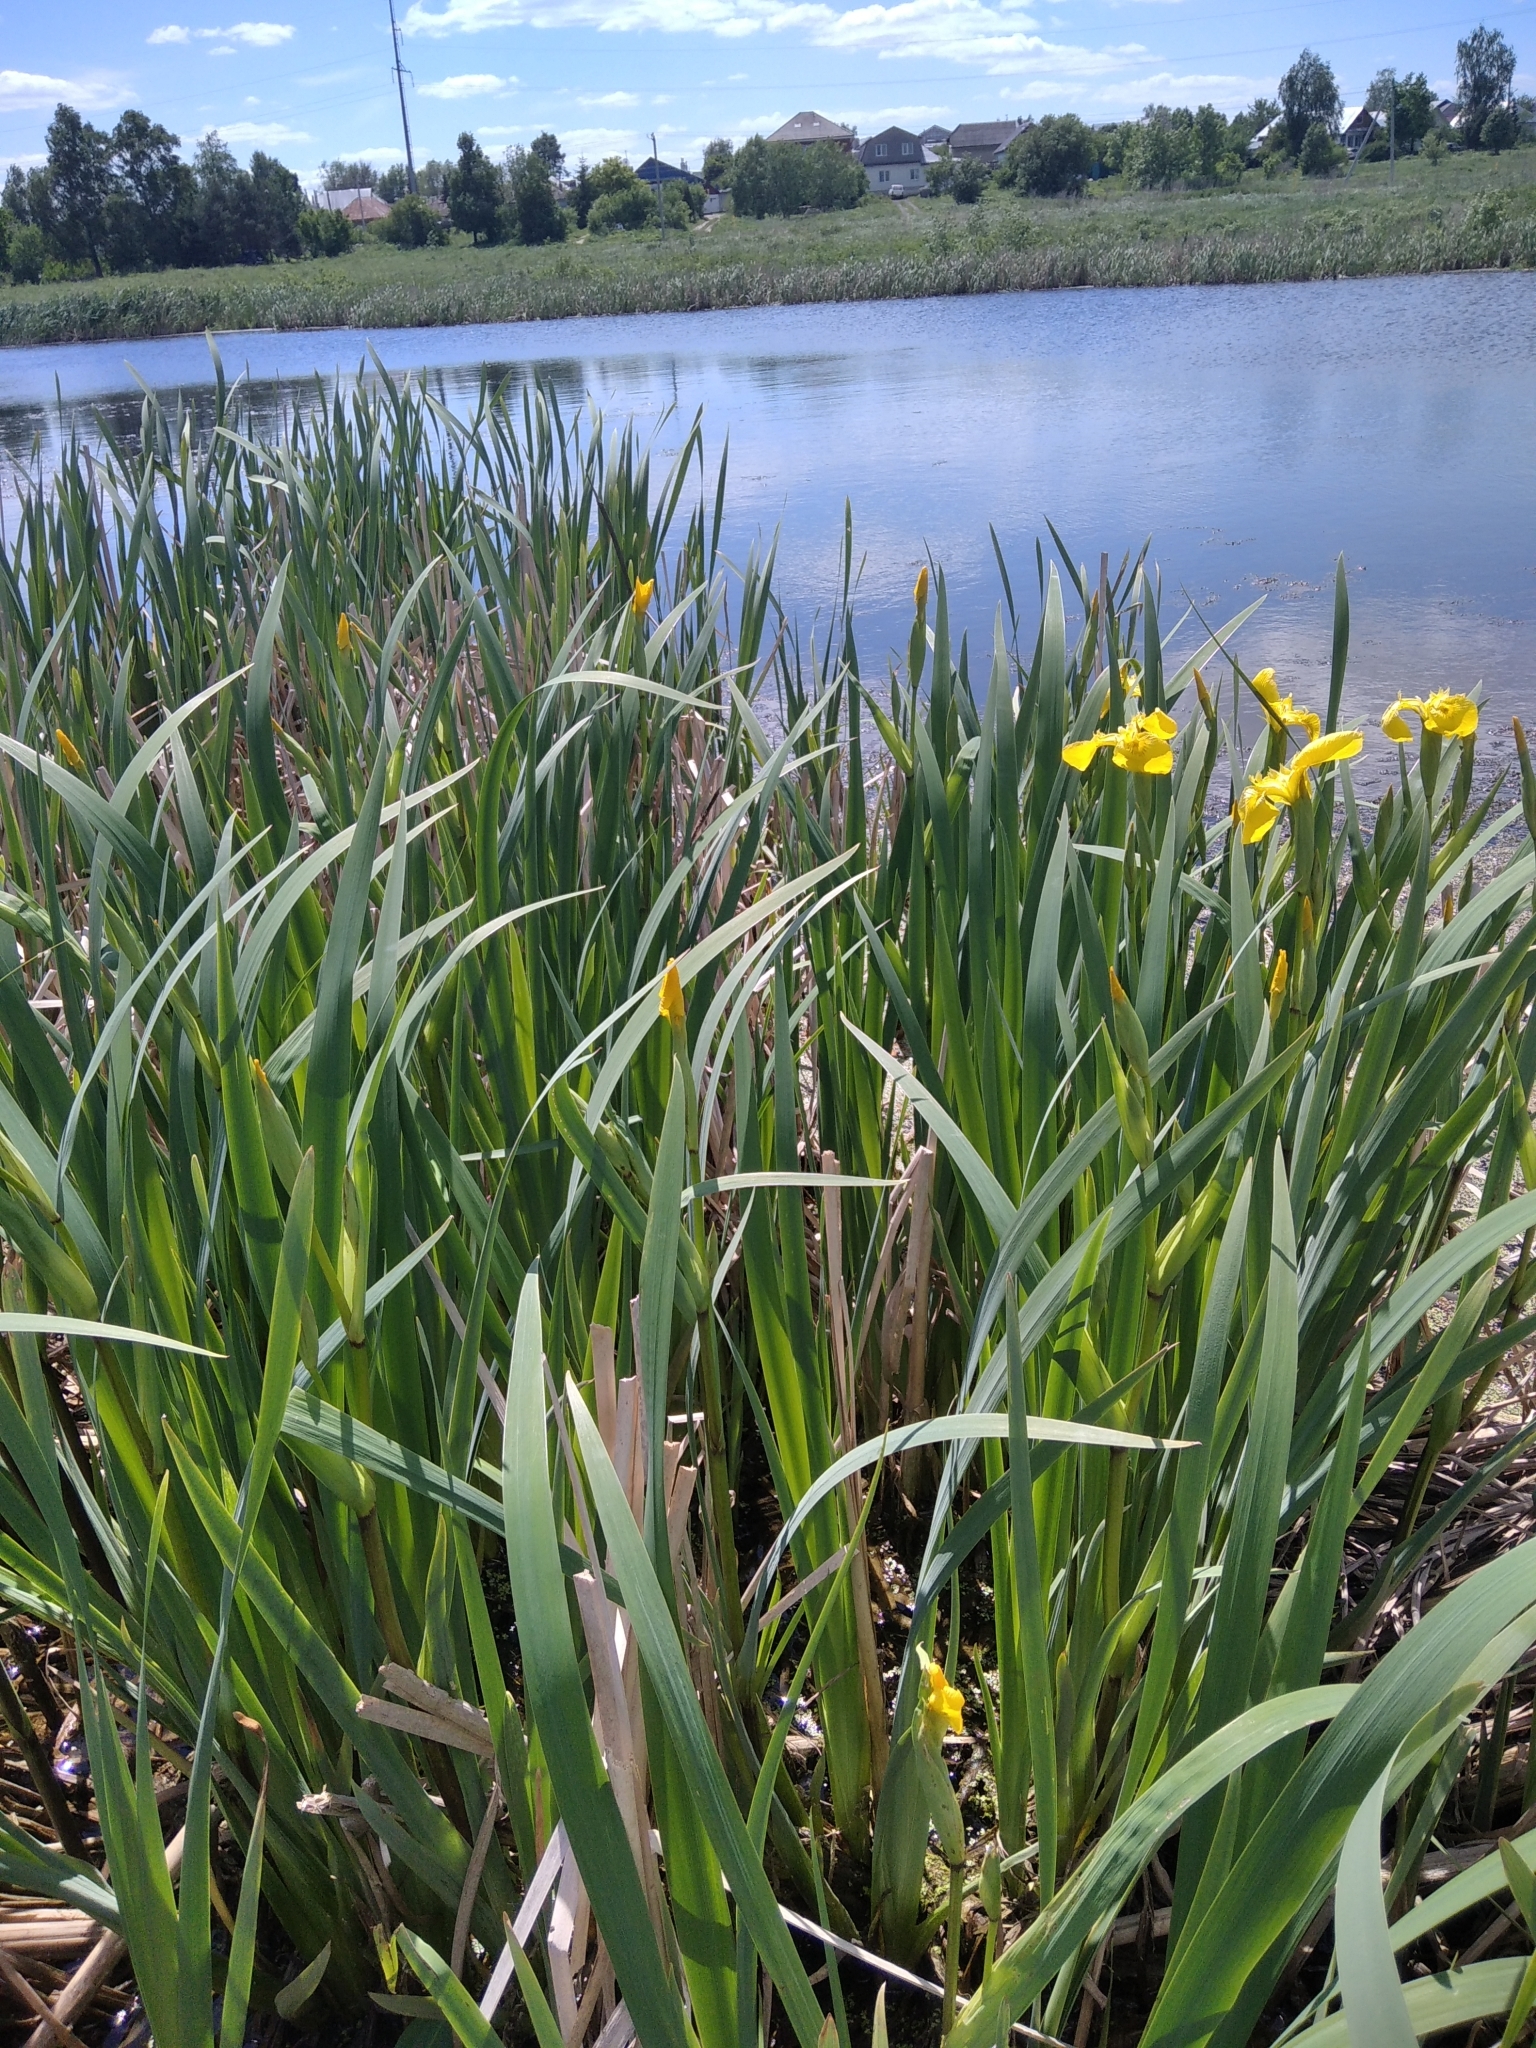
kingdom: Plantae
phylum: Tracheophyta
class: Liliopsida
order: Asparagales
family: Iridaceae
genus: Iris
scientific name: Iris pseudacorus
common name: Yellow flag
